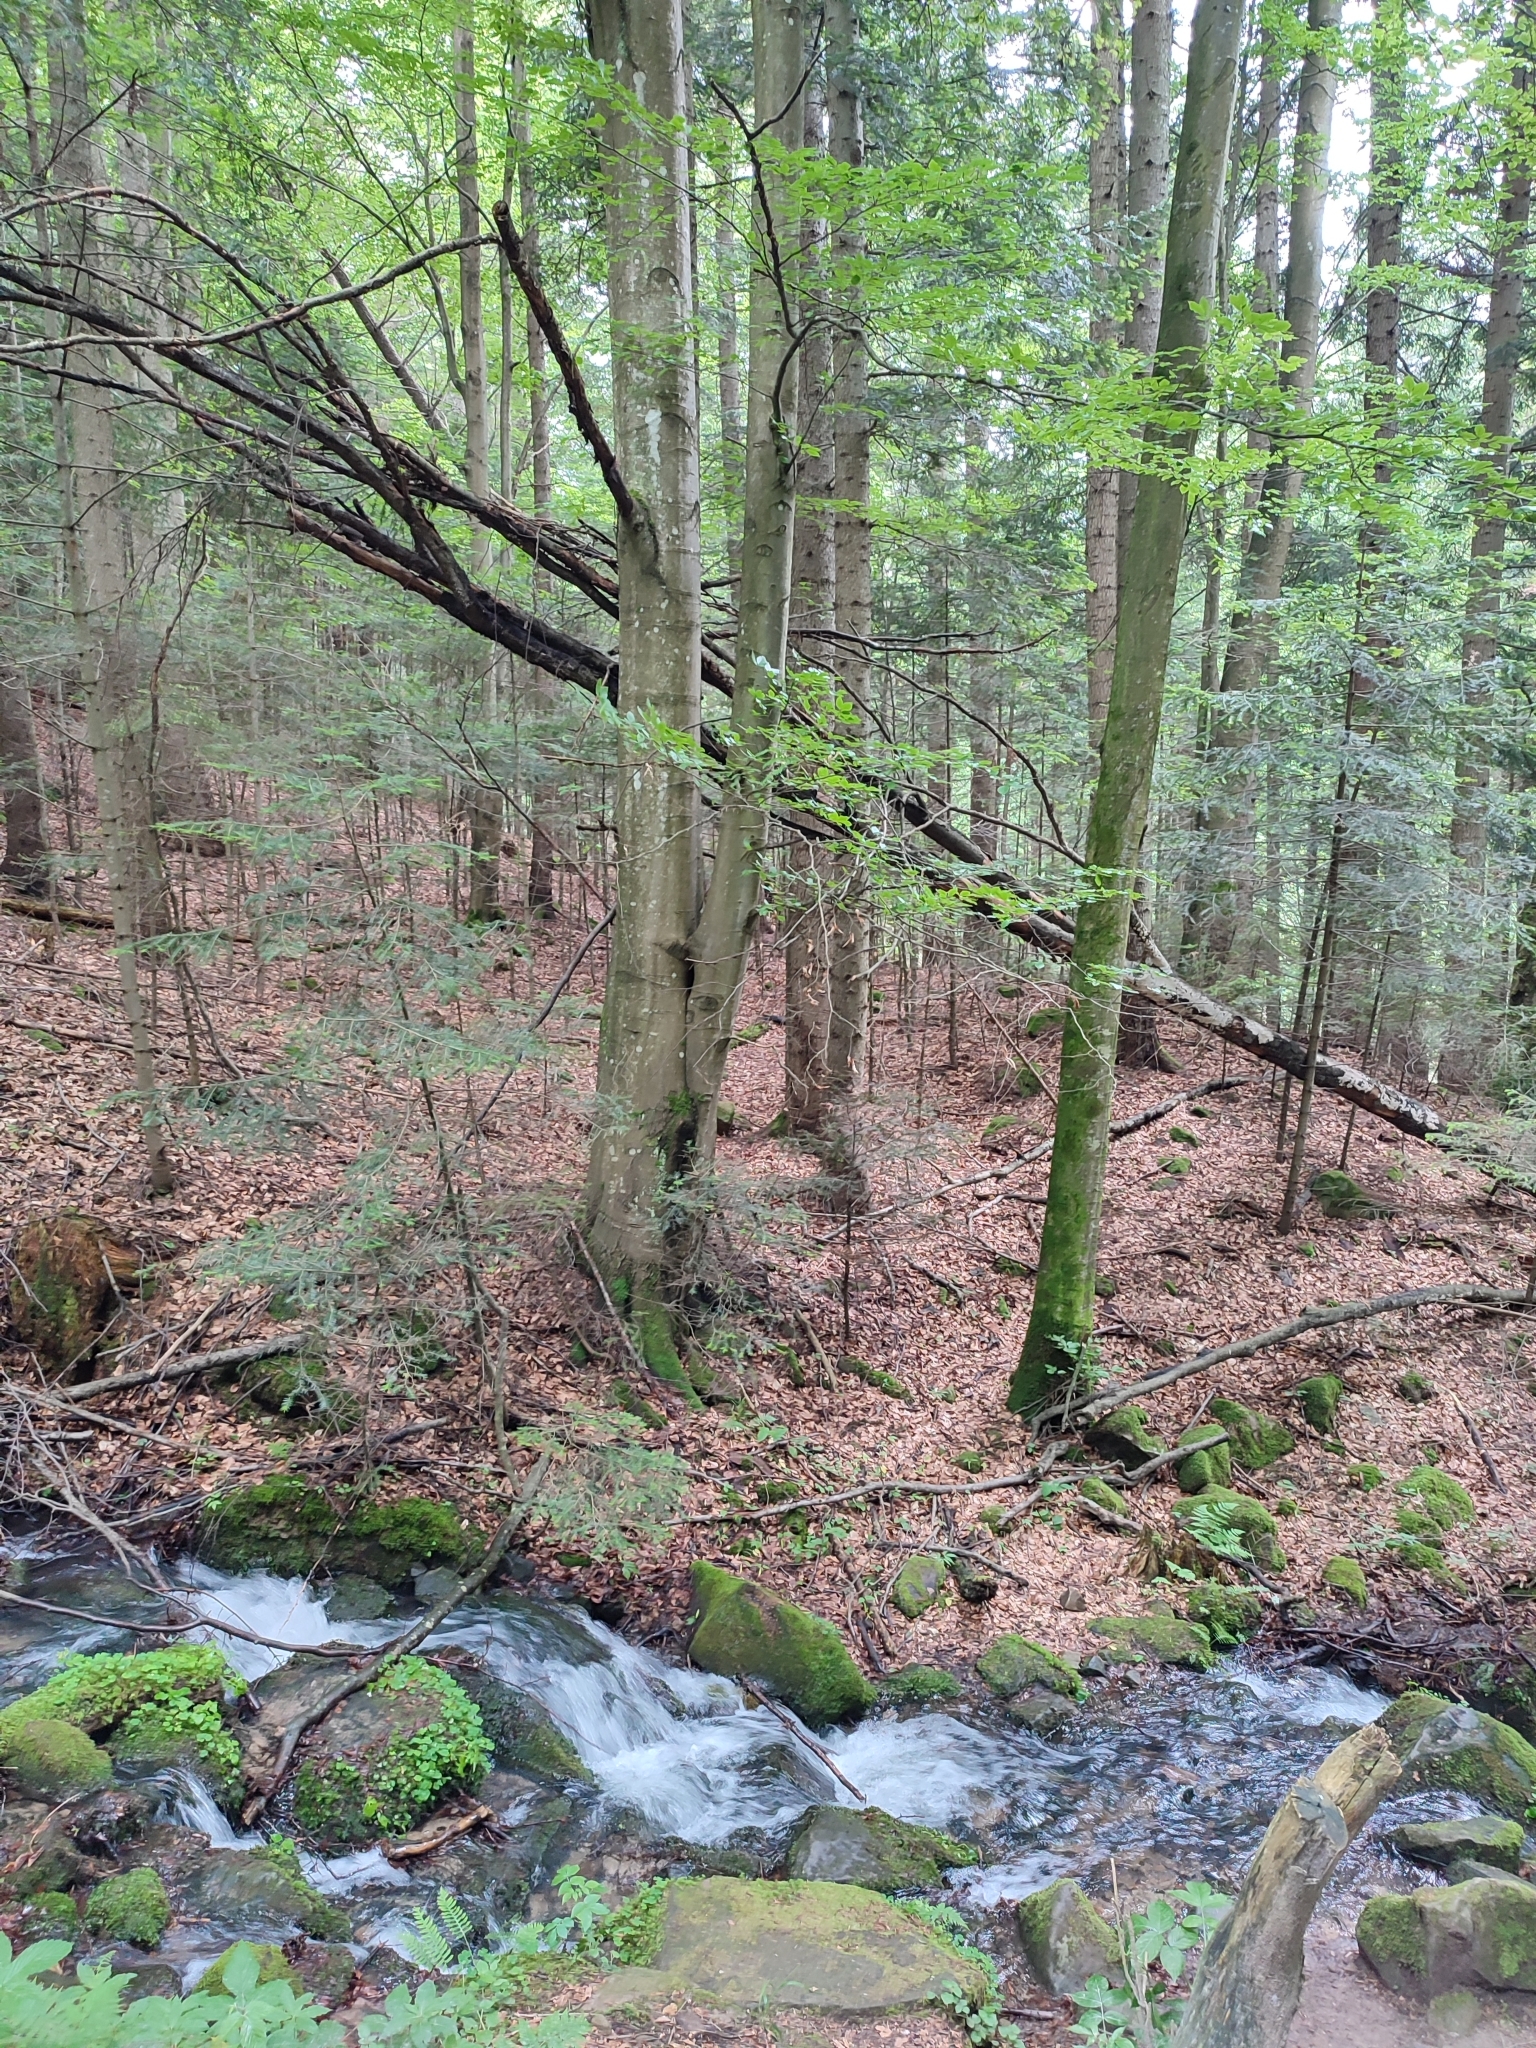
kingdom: Plantae
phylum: Tracheophyta
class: Magnoliopsida
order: Fagales
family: Fagaceae
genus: Fagus
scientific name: Fagus sylvatica
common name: Beech
